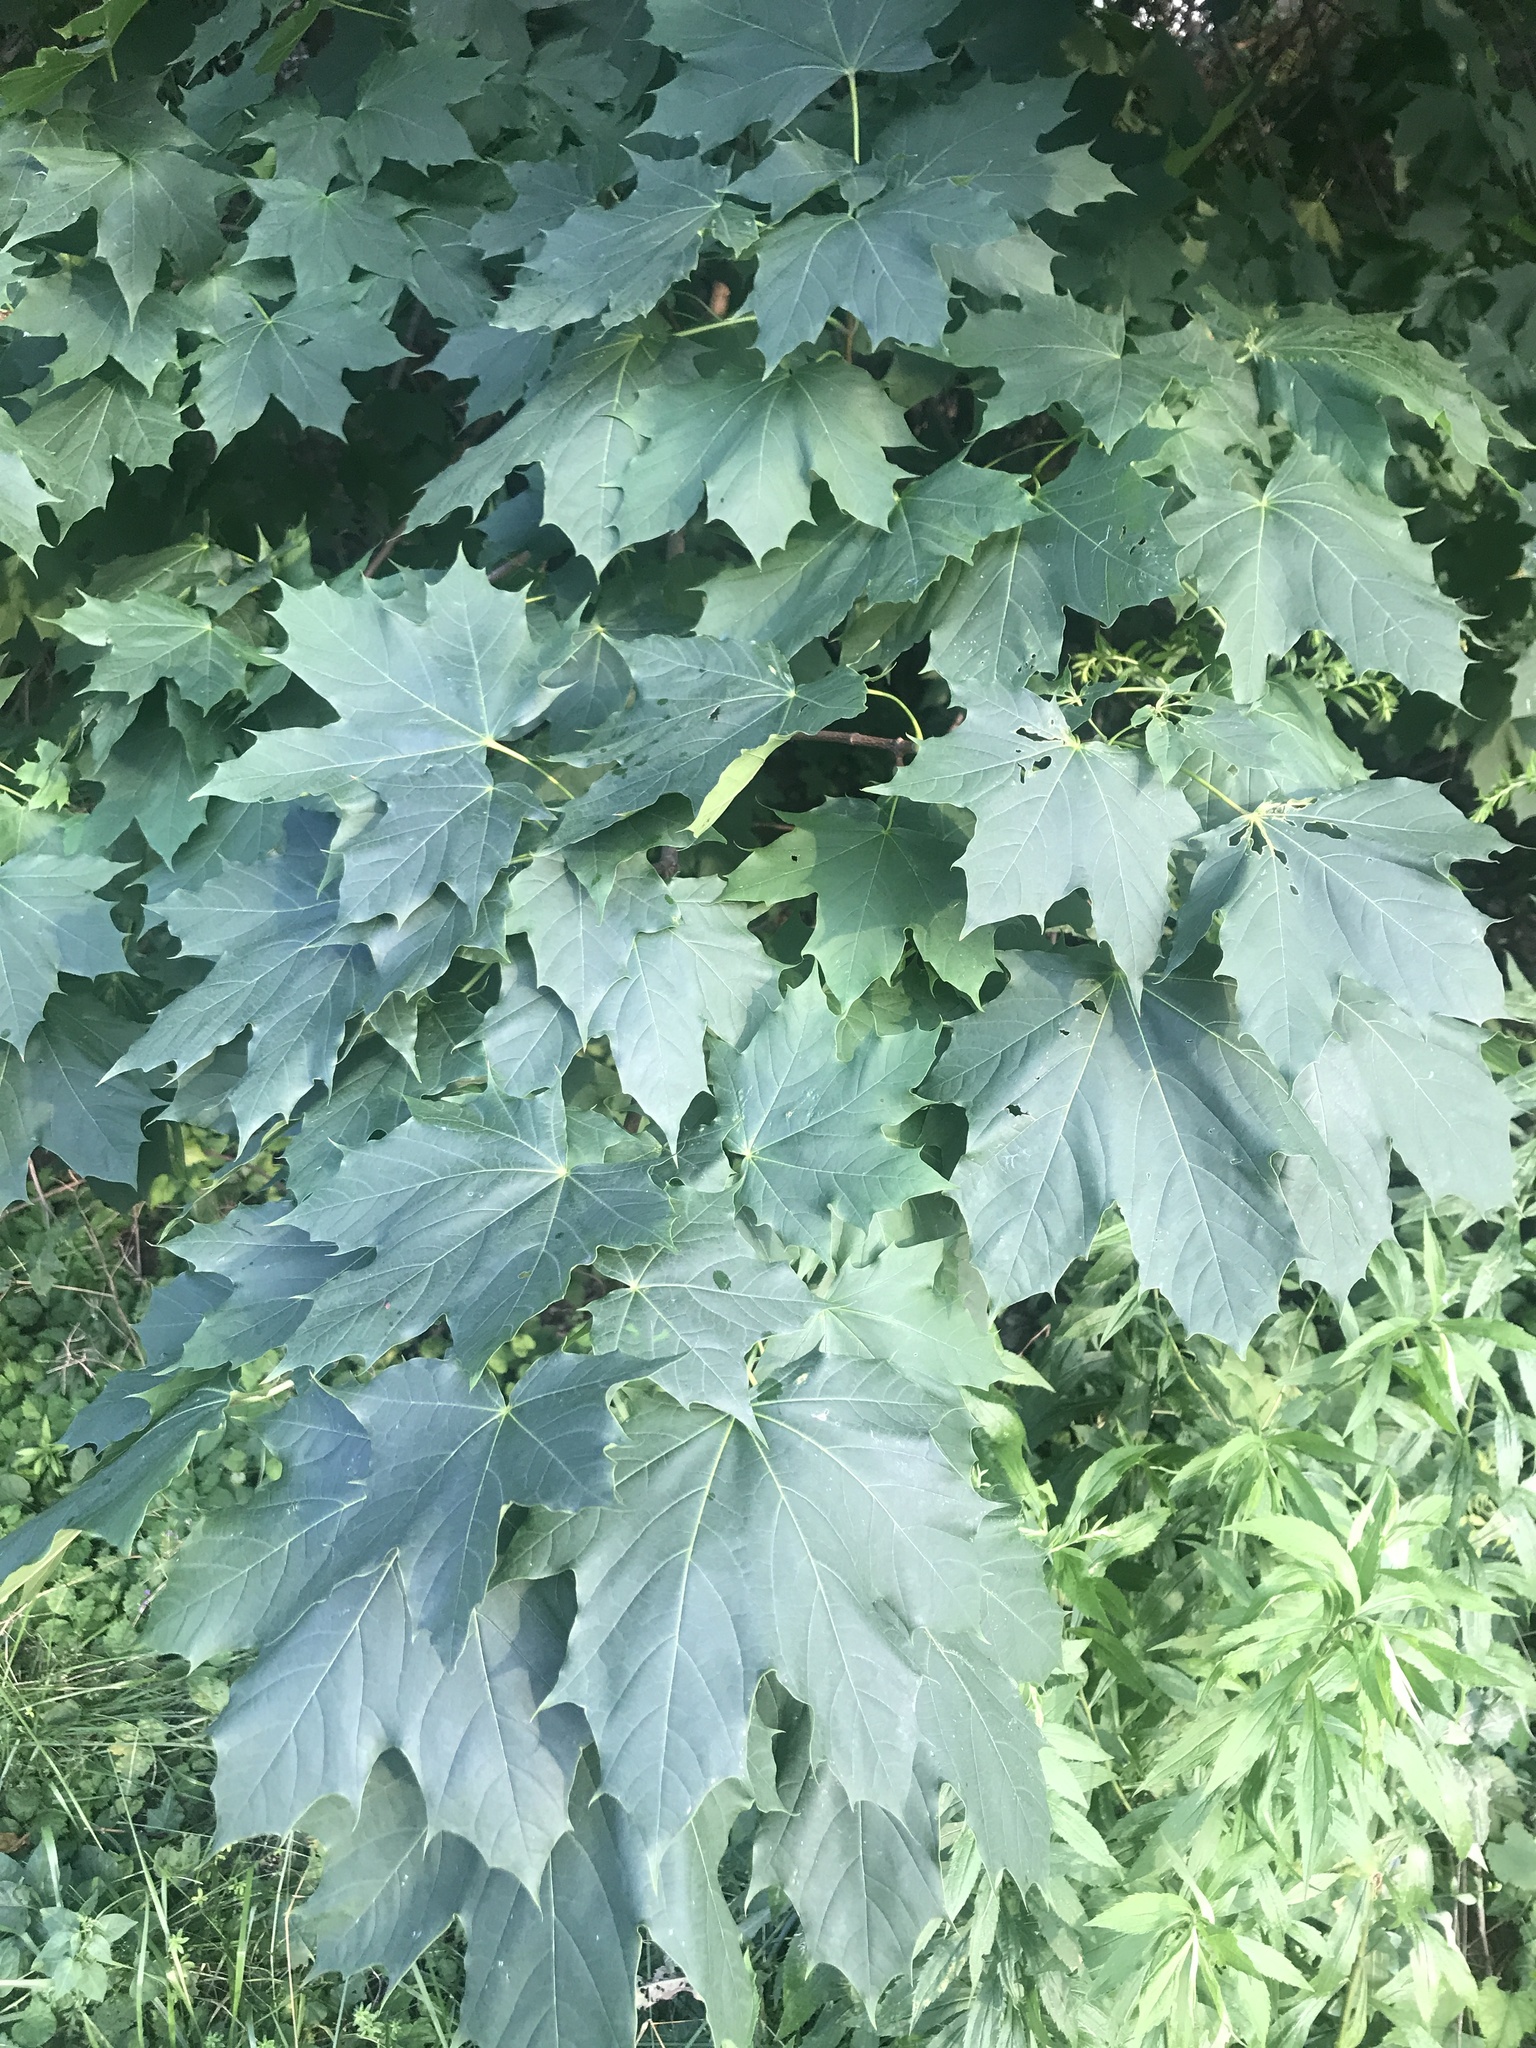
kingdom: Plantae
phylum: Tracheophyta
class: Magnoliopsida
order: Sapindales
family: Sapindaceae
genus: Acer
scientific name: Acer platanoides
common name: Norway maple
